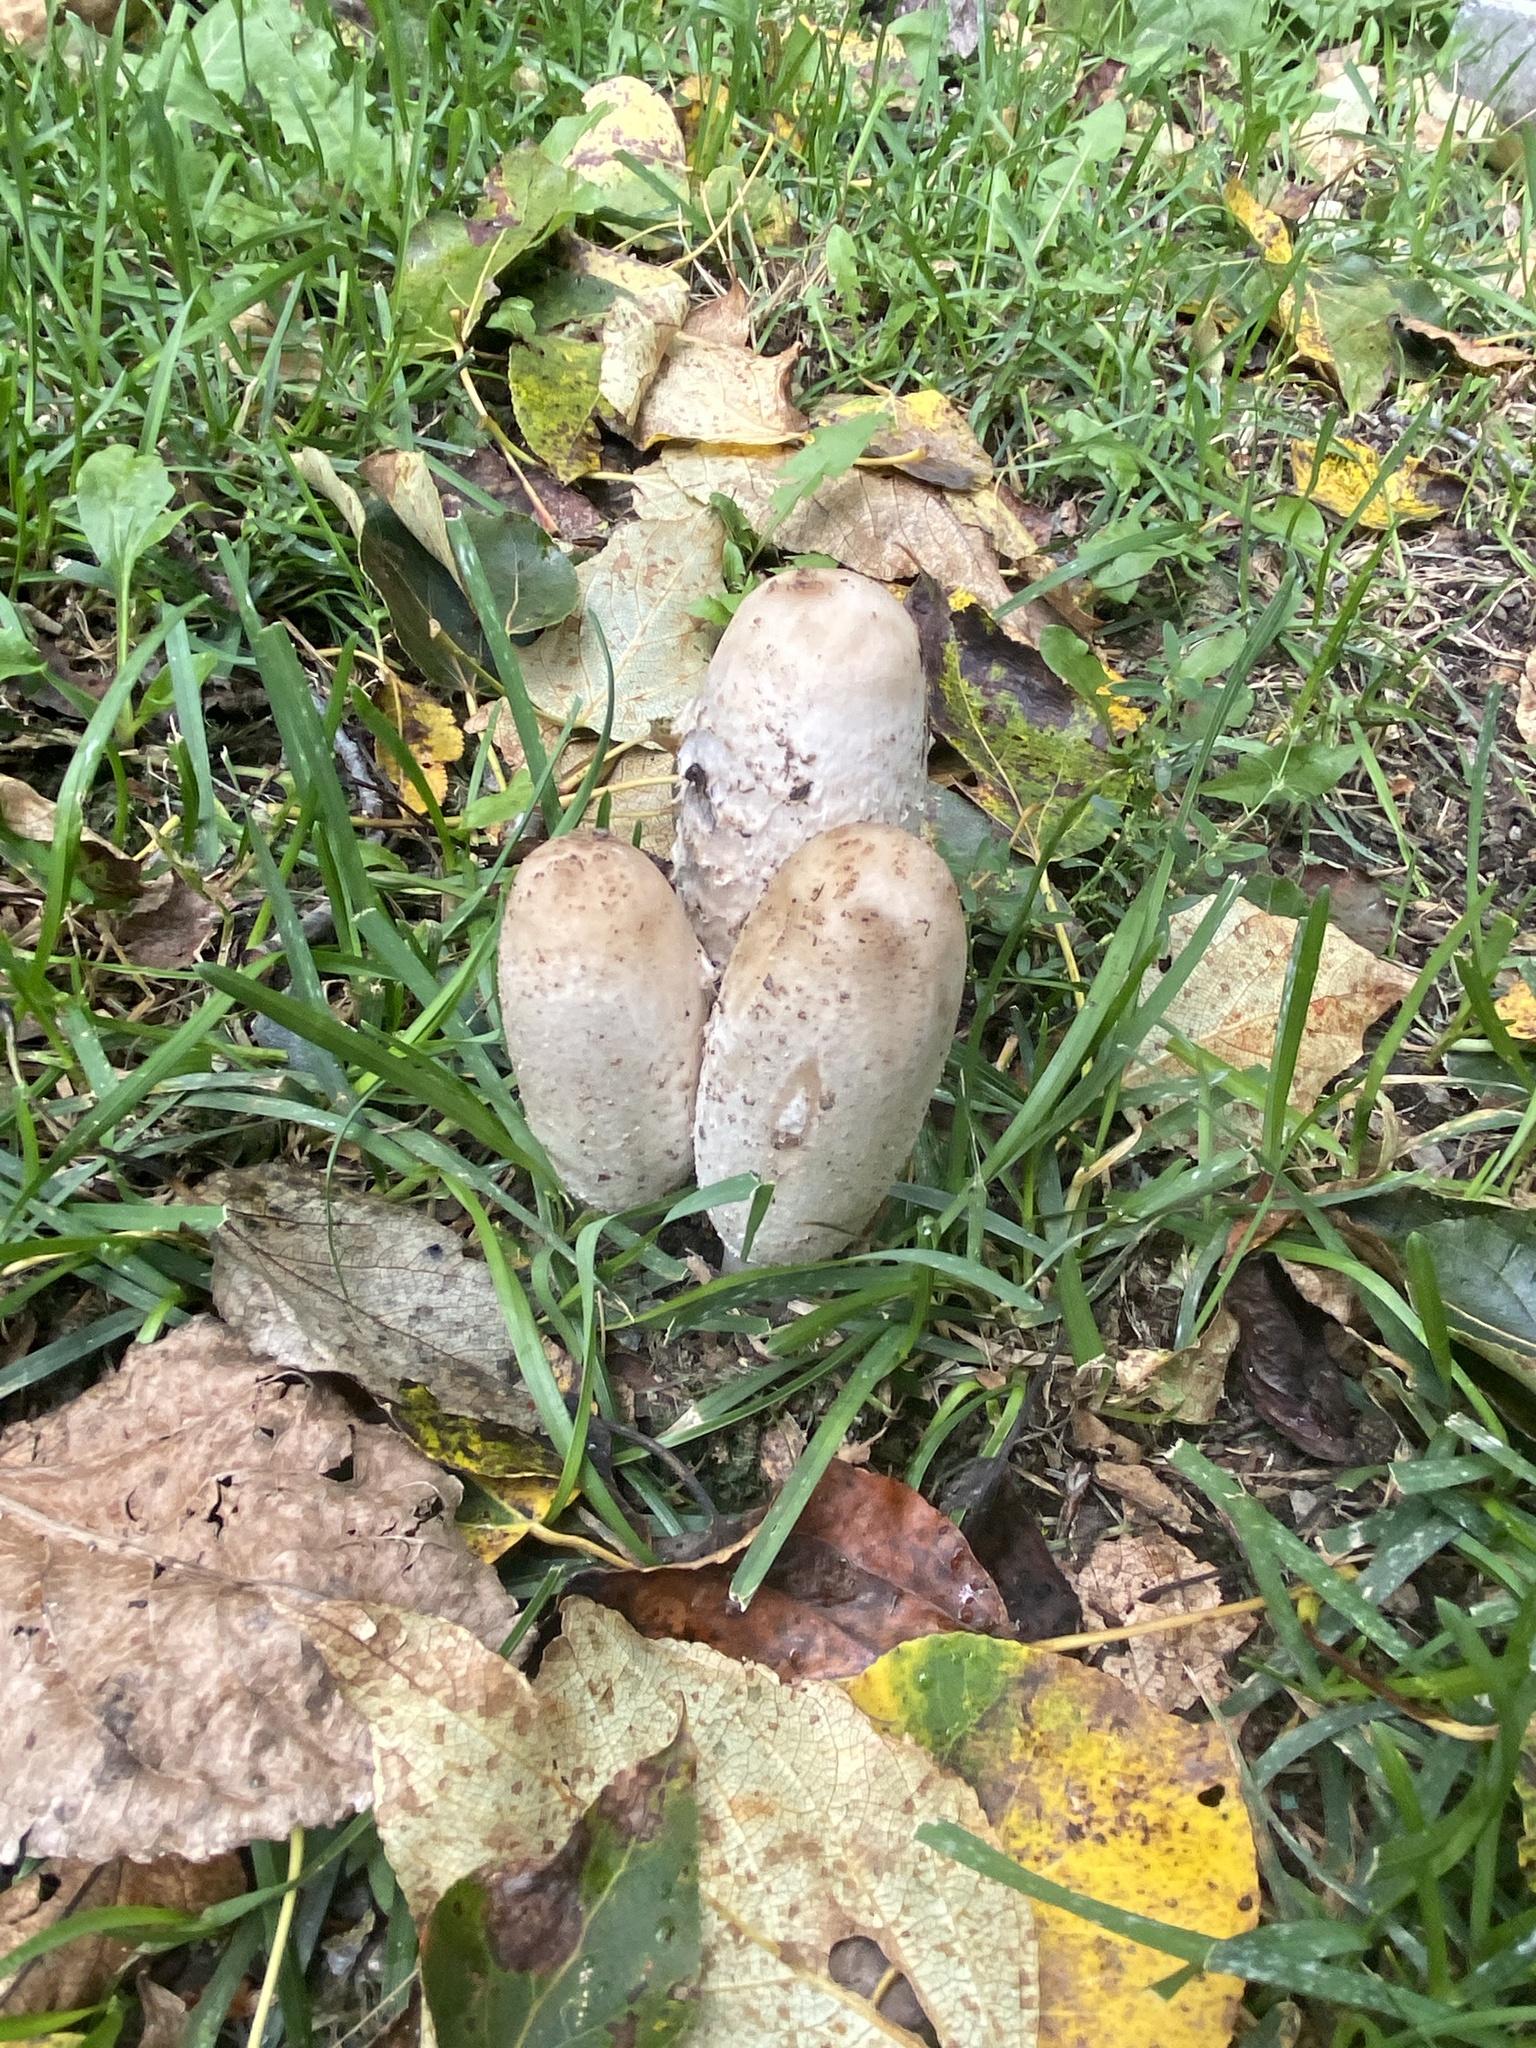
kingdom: Fungi
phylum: Basidiomycota
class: Agaricomycetes
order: Agaricales
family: Agaricaceae
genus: Coprinus
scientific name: Coprinus comatus
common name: Lawyer's wig
